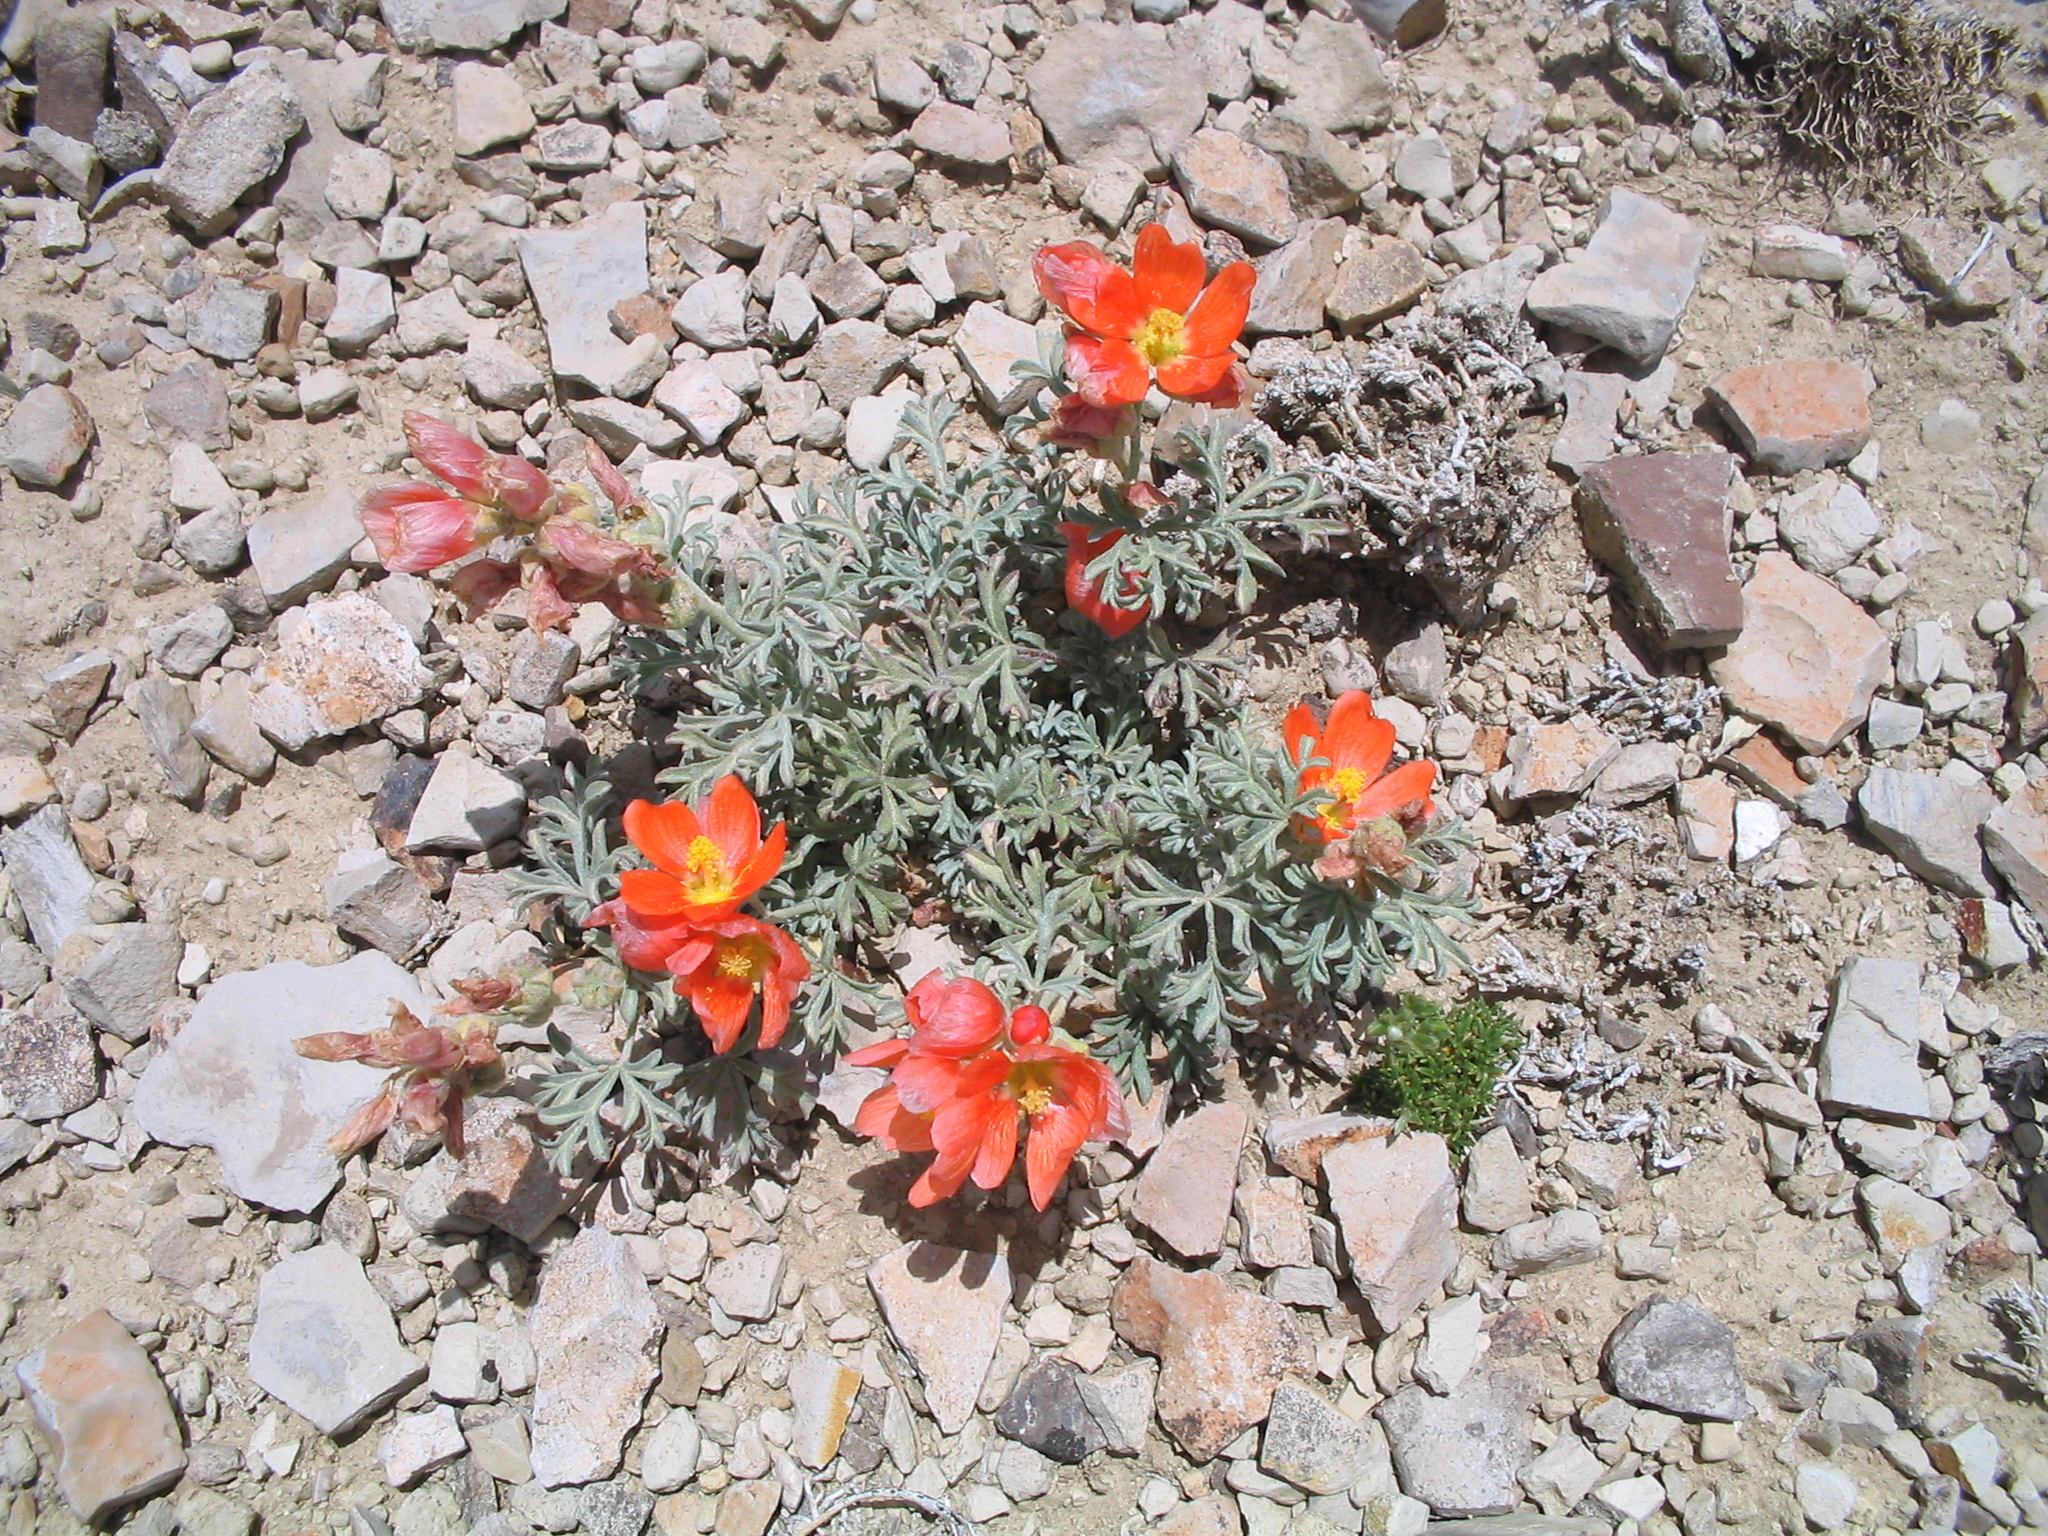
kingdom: Plantae
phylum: Tracheophyta
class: Magnoliopsida
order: Malvales
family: Malvaceae
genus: Sphaeralcea
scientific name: Sphaeralcea coccinea
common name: Moss-rose
